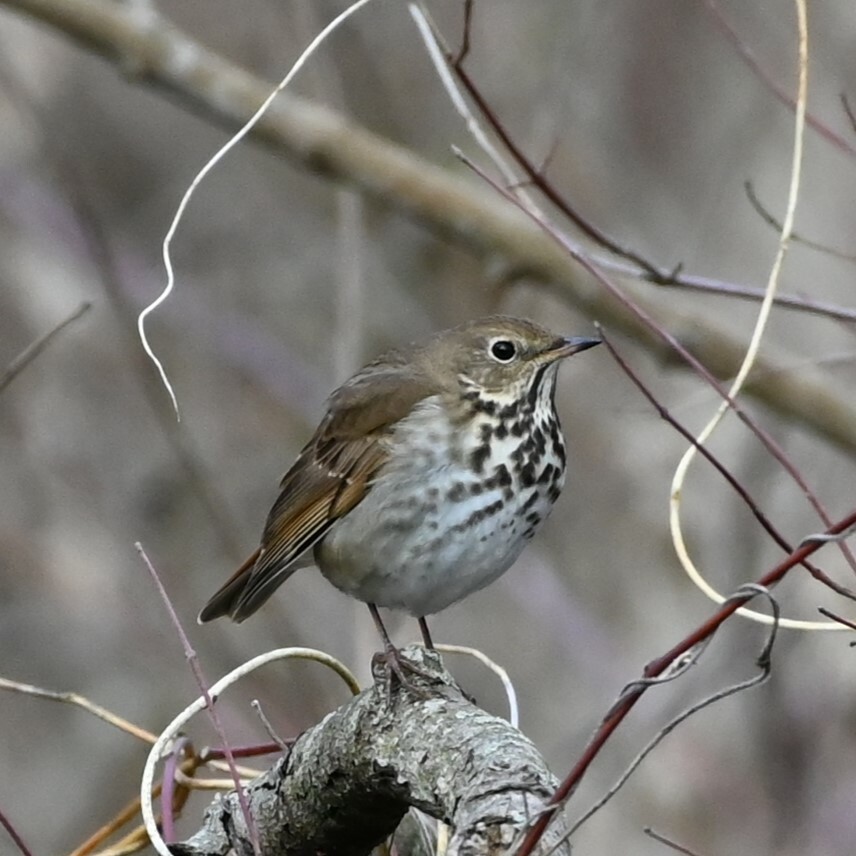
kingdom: Animalia
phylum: Chordata
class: Aves
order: Passeriformes
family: Turdidae
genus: Catharus
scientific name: Catharus guttatus
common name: Hermit thrush
